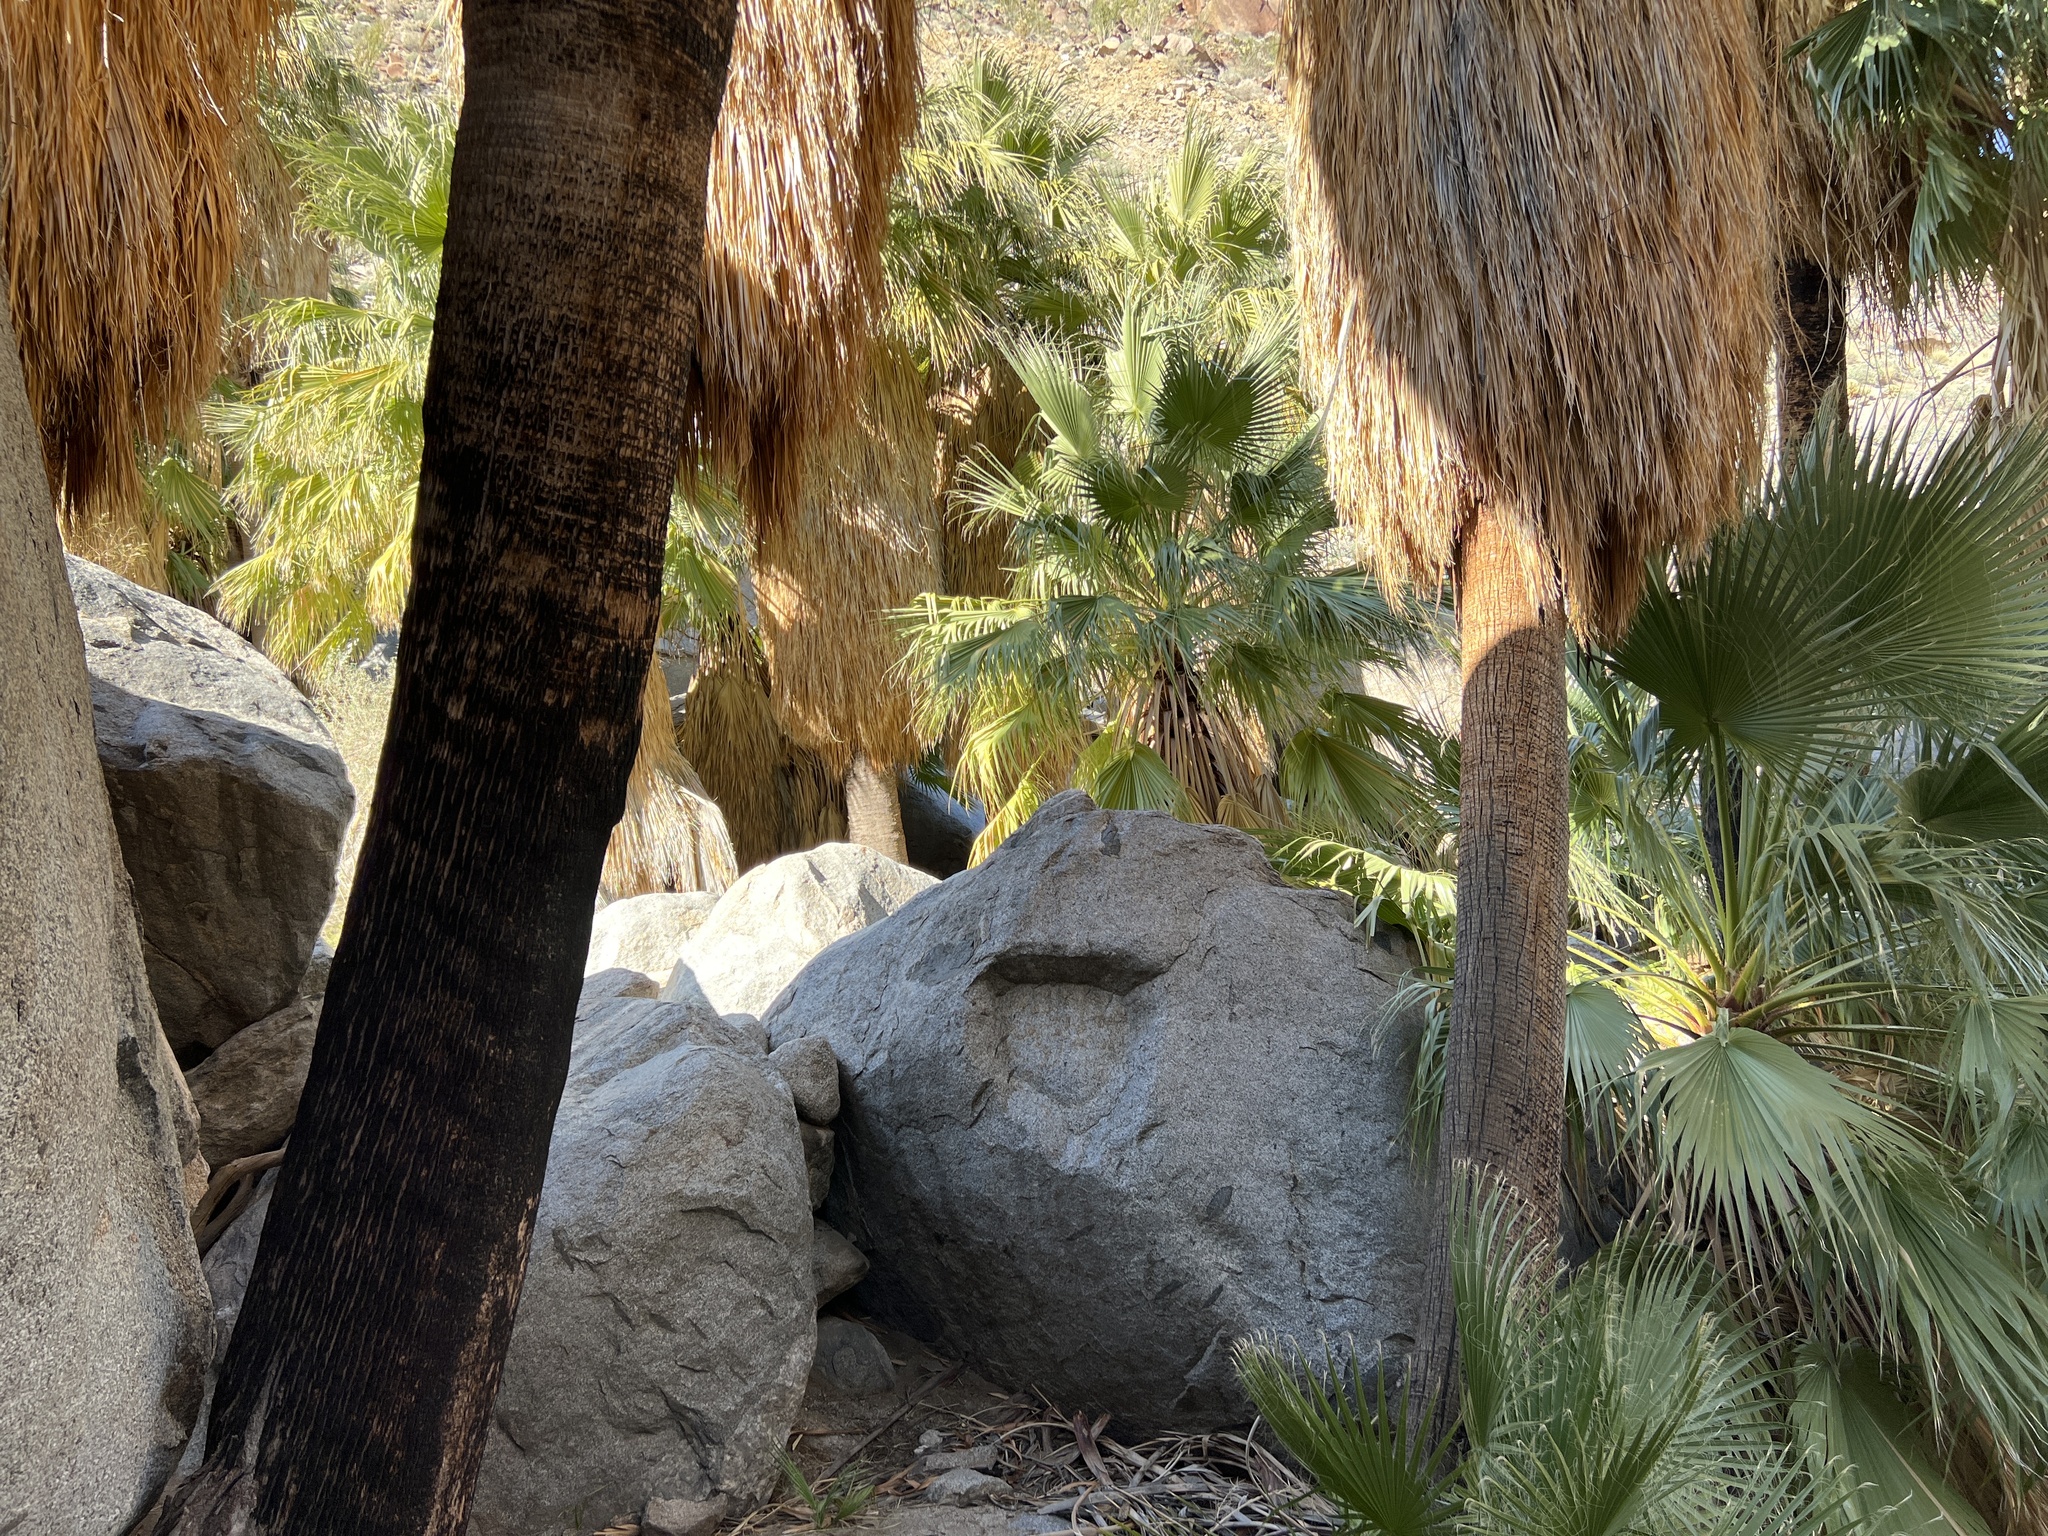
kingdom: Plantae
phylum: Tracheophyta
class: Liliopsida
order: Arecales
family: Arecaceae
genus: Washingtonia
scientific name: Washingtonia filifera
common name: California fan palm
